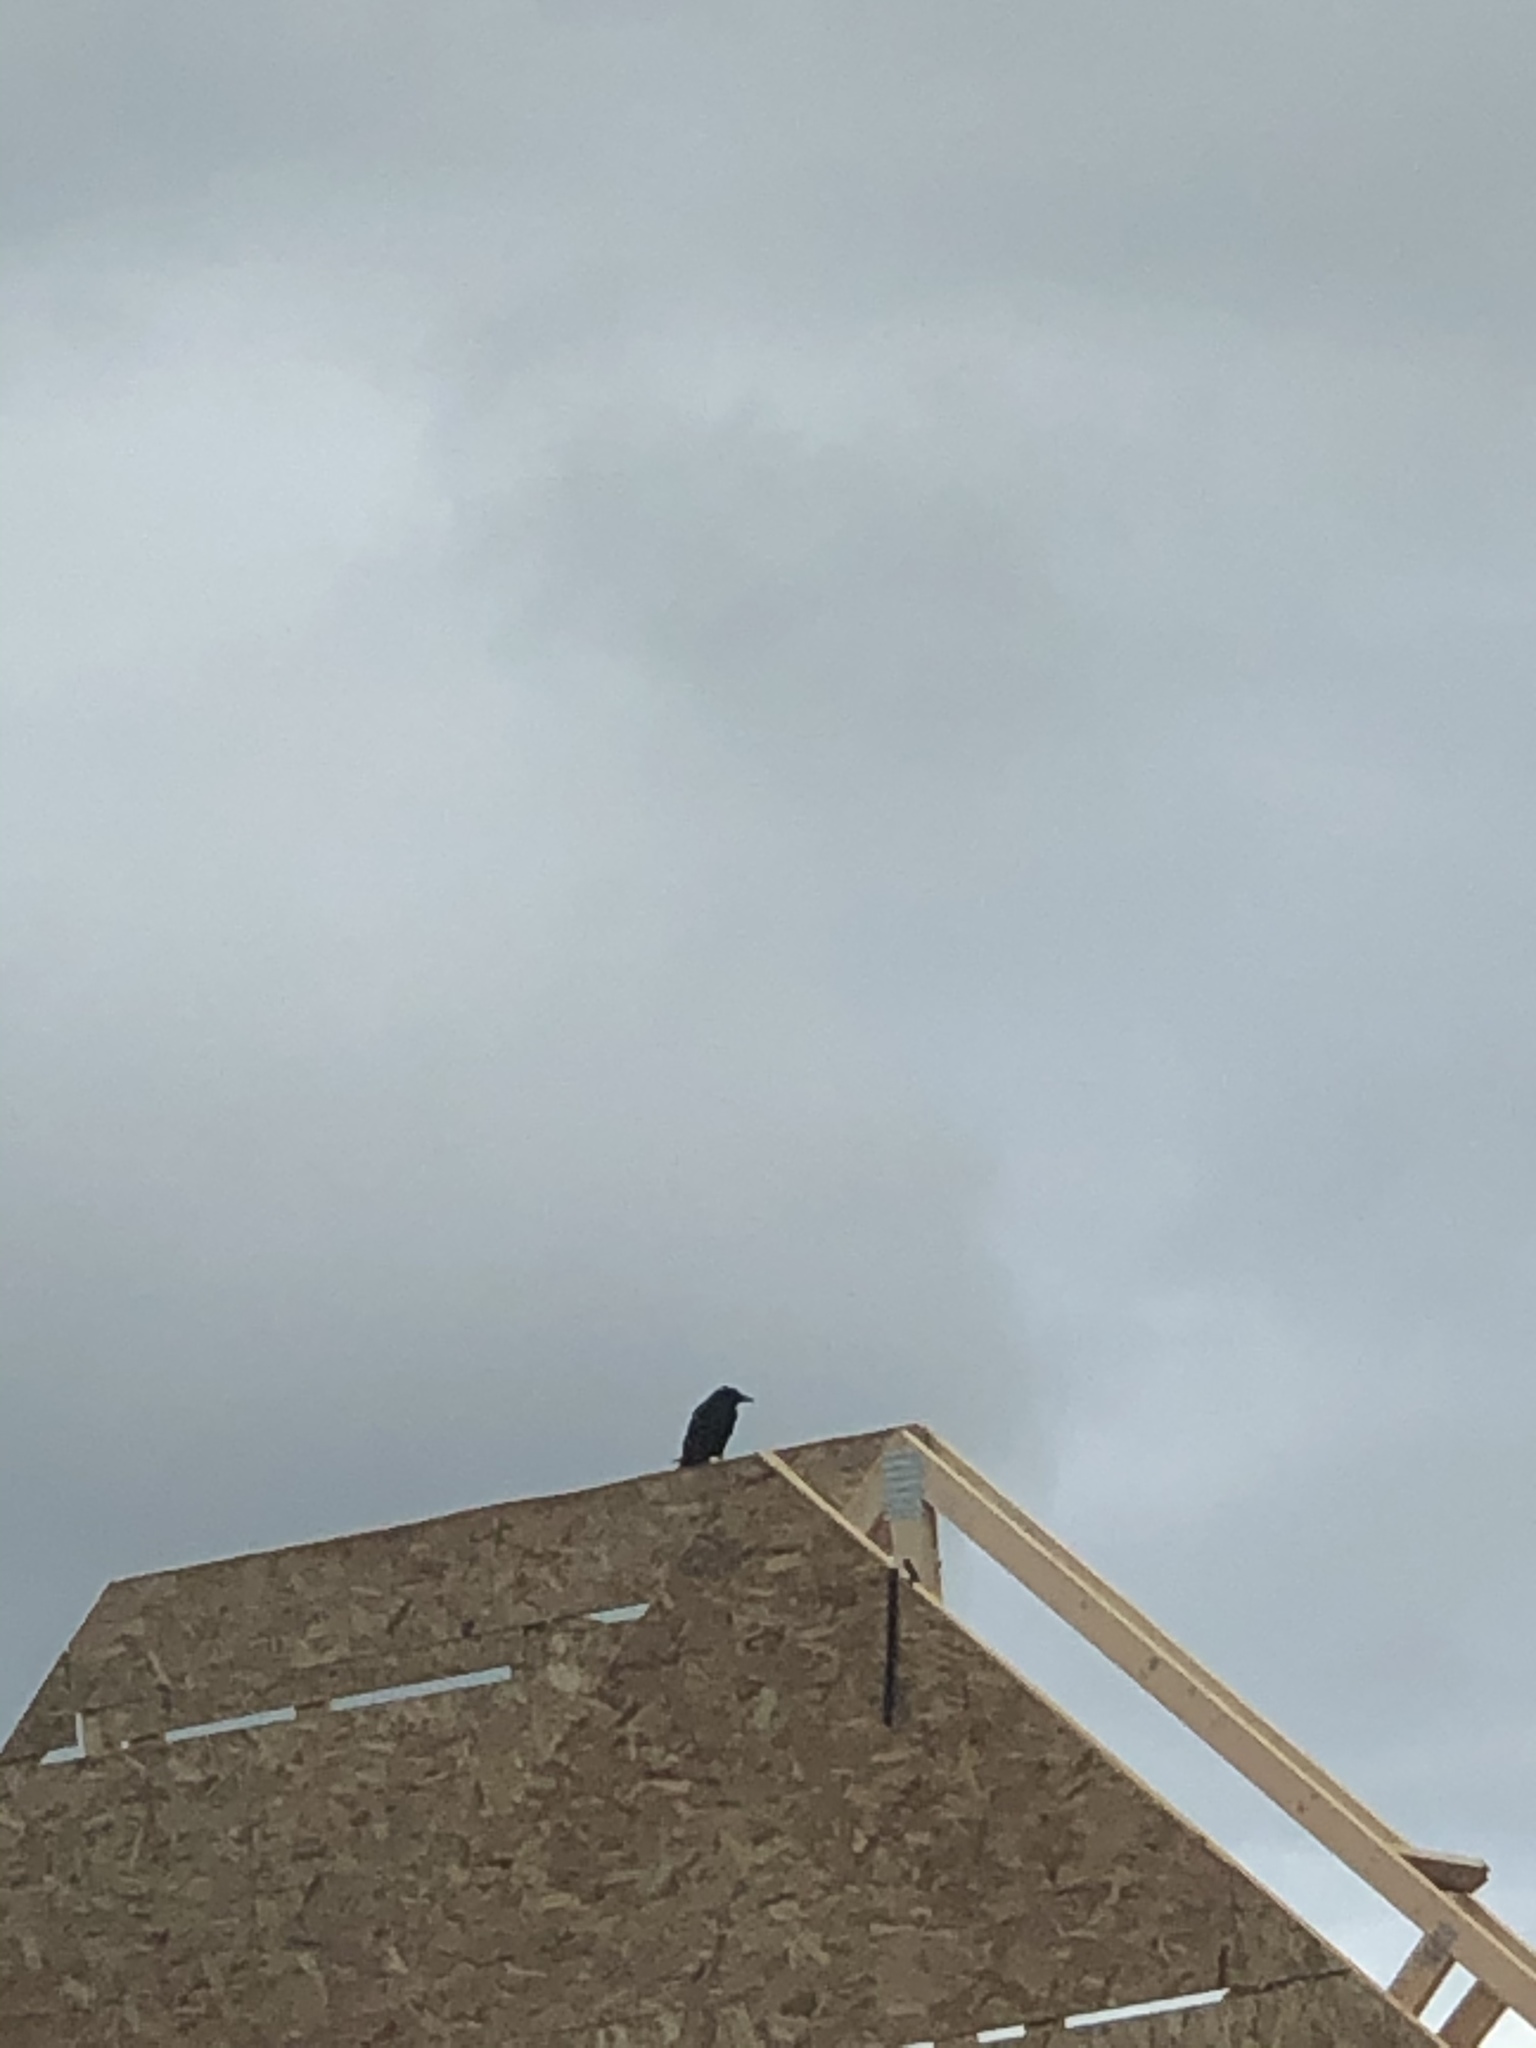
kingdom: Animalia
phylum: Chordata
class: Aves
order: Passeriformes
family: Corvidae
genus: Corvus
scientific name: Corvus brachyrhynchos
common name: American crow
